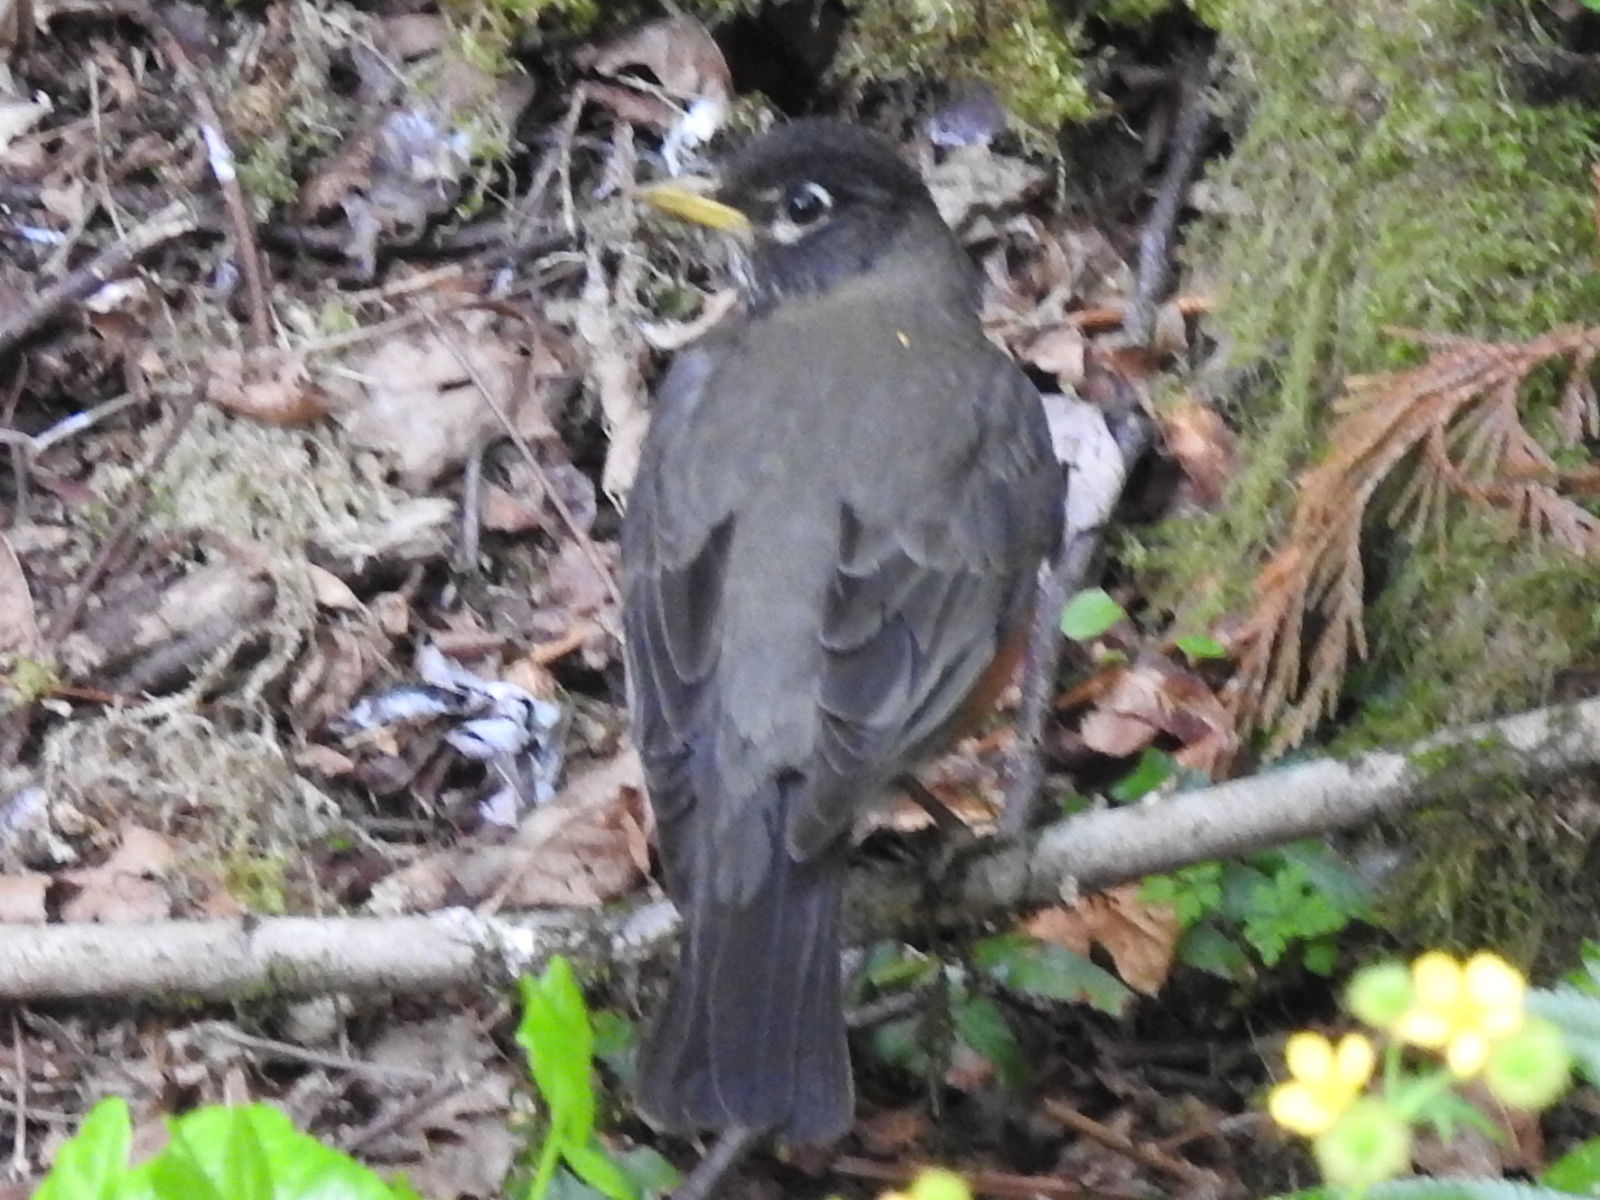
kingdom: Animalia
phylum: Chordata
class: Aves
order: Passeriformes
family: Turdidae
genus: Turdus
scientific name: Turdus migratorius
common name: American robin
